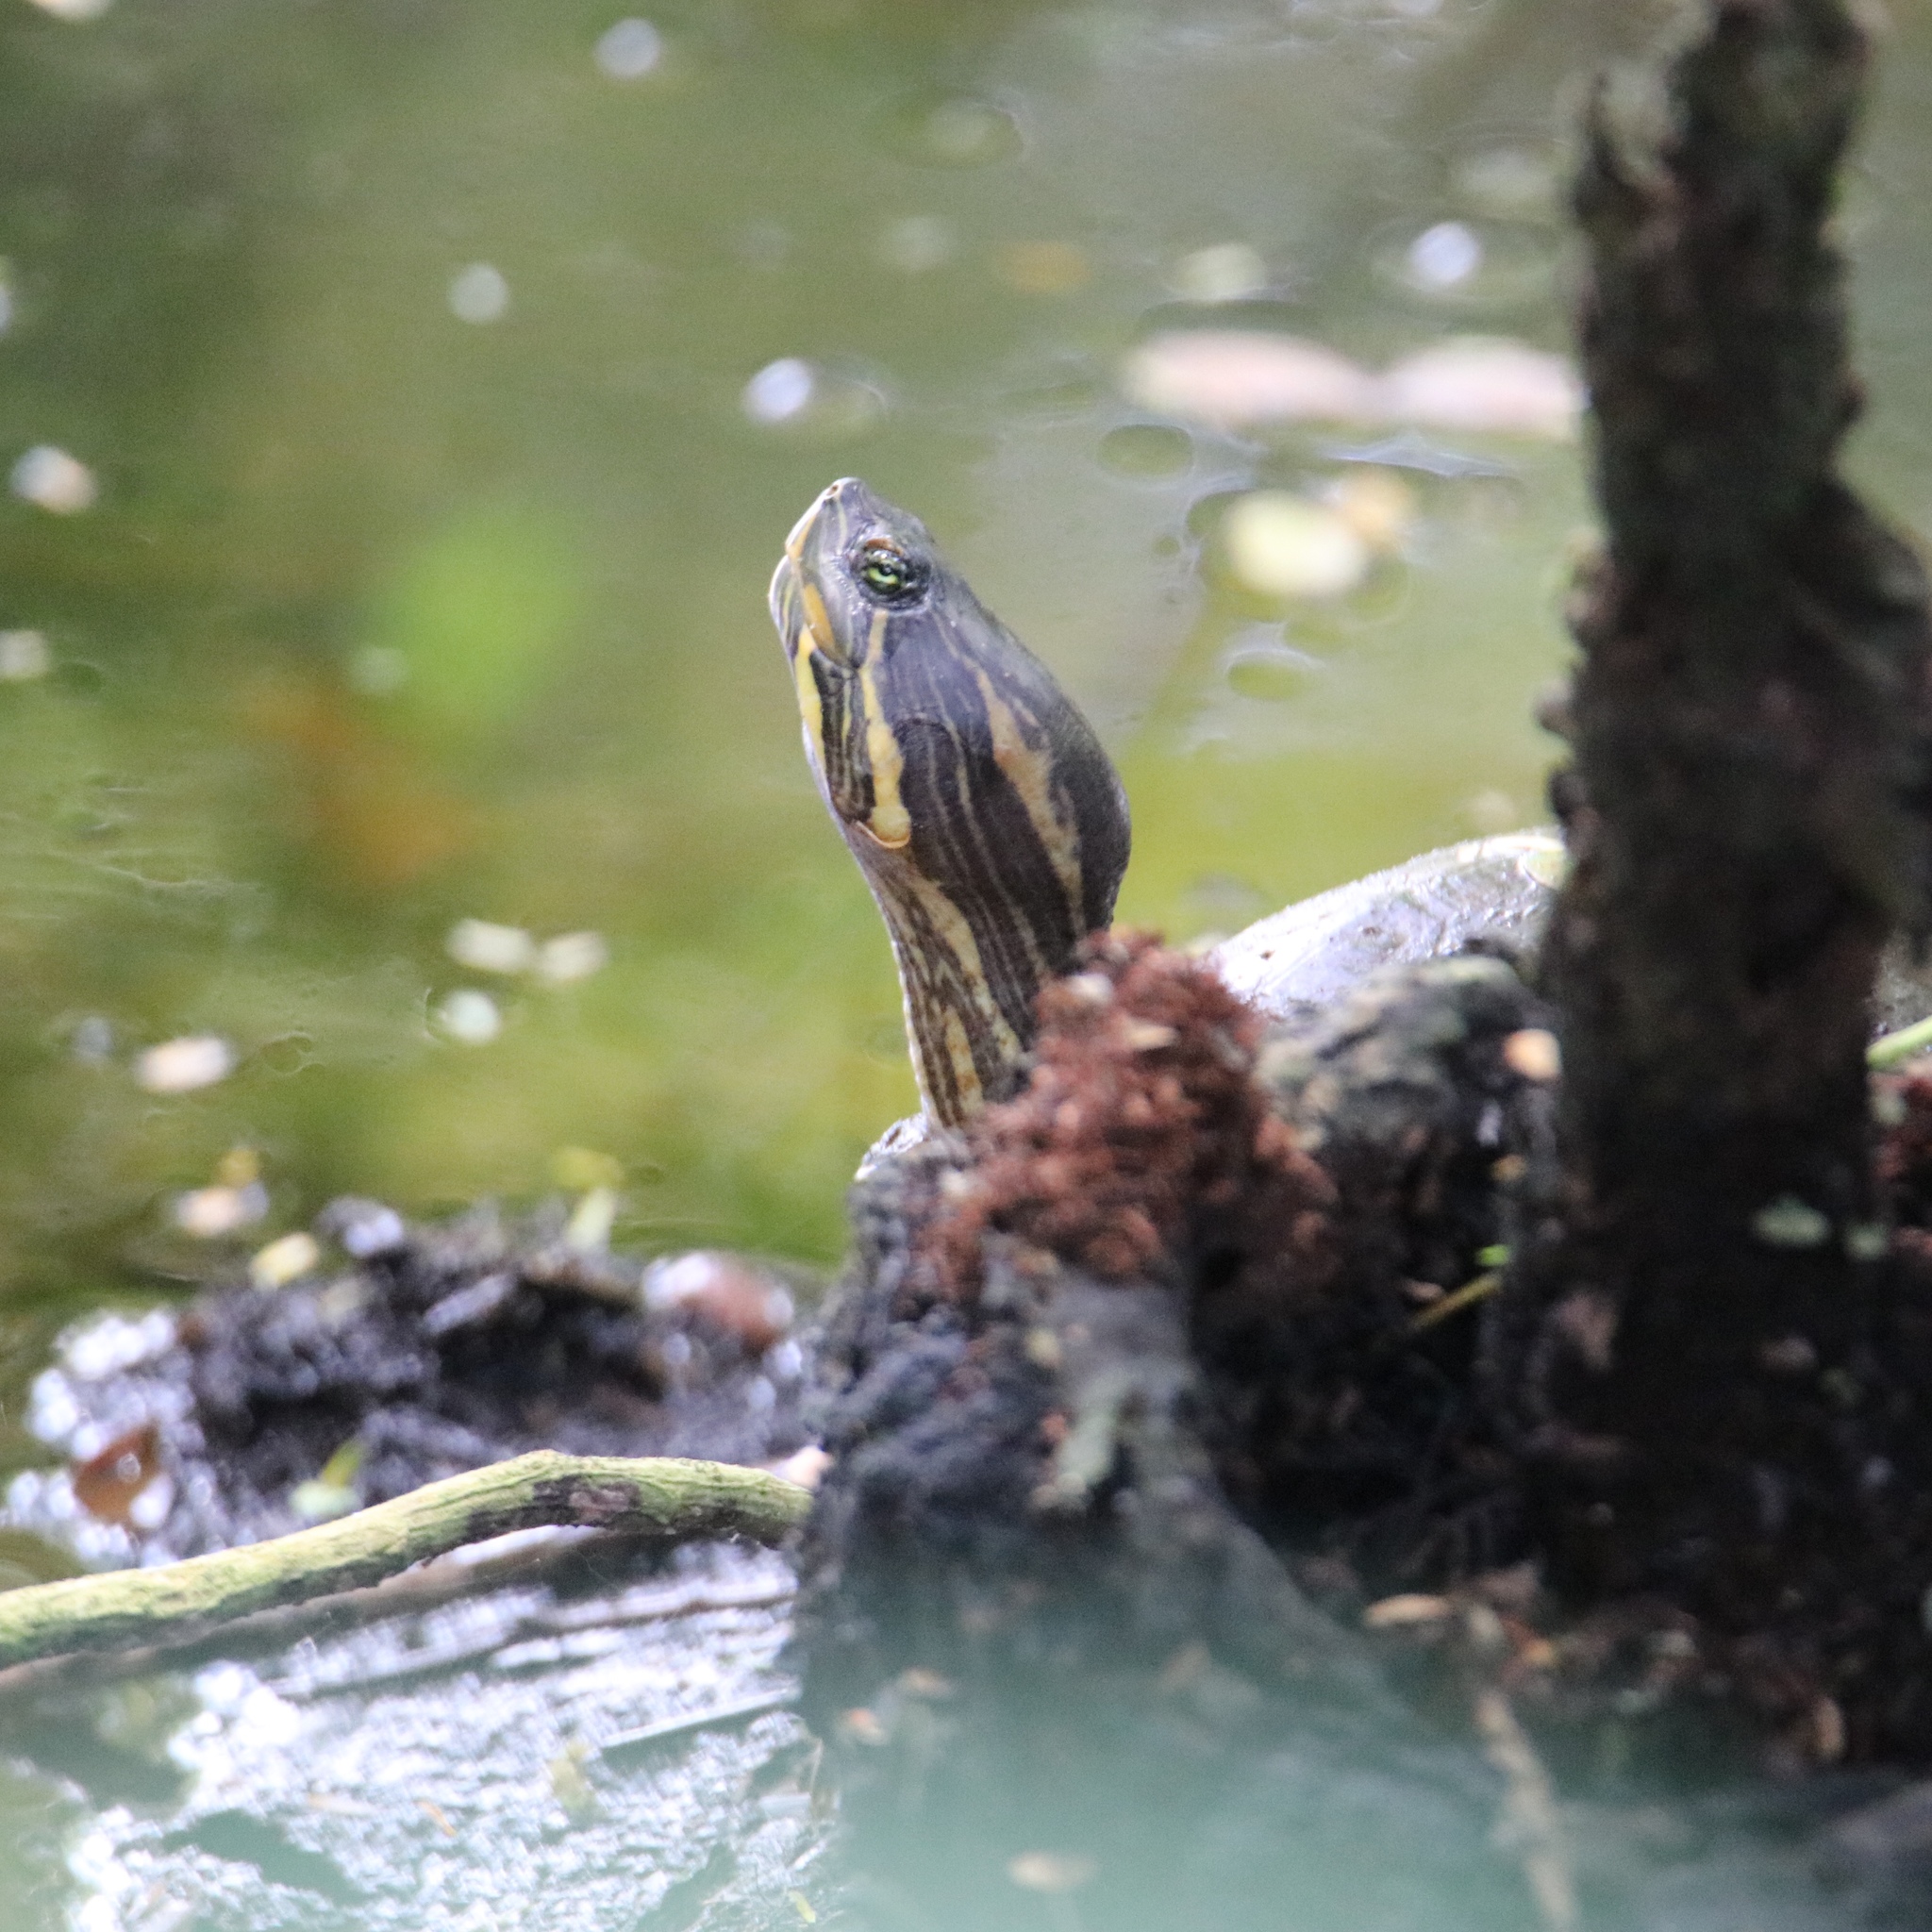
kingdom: Animalia
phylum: Chordata
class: Testudines
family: Emydidae
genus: Trachemys
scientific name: Trachemys grayi
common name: Gray's slider
